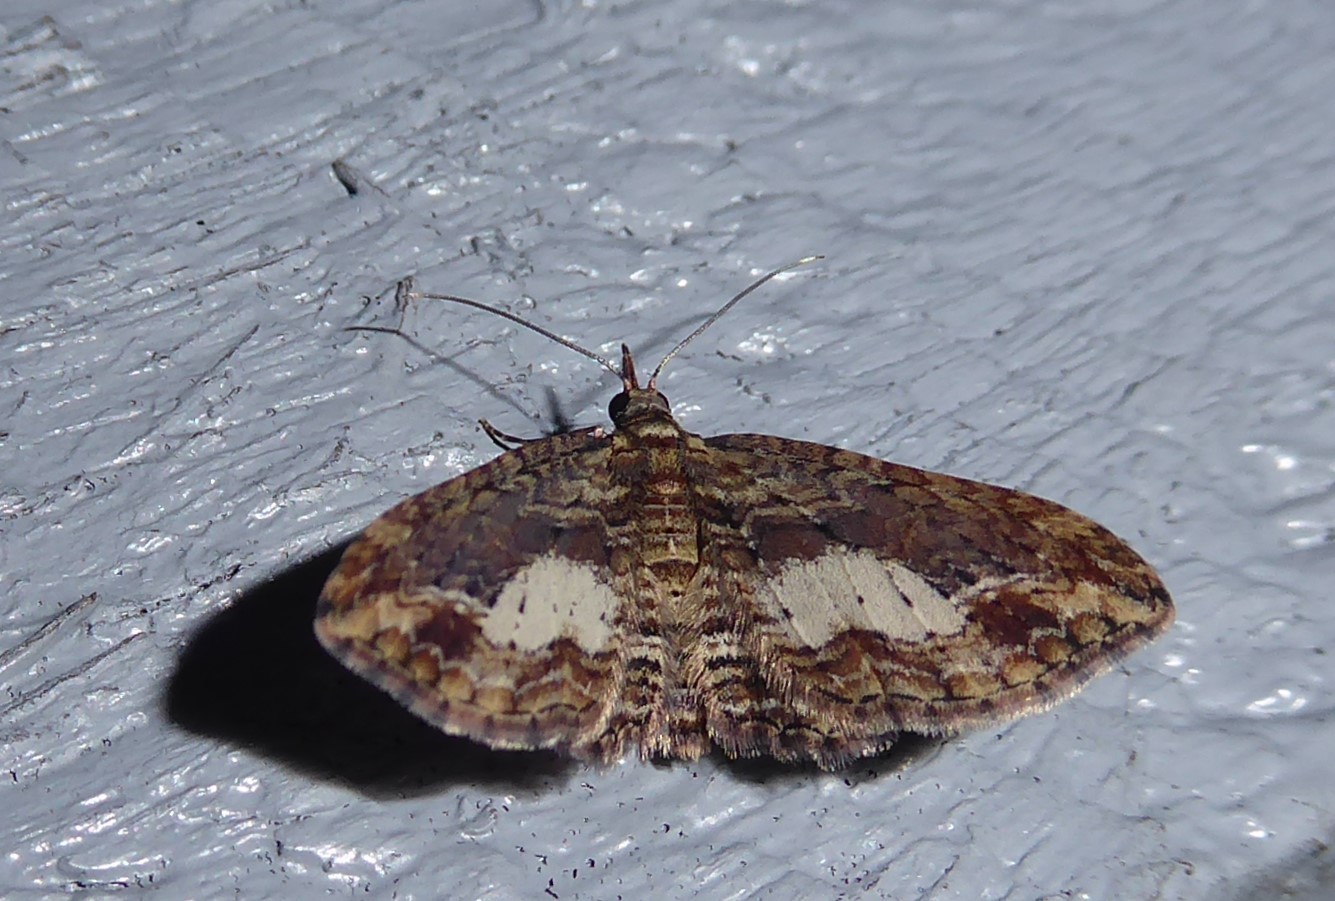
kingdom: Animalia
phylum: Arthropoda
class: Insecta
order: Lepidoptera
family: Geometridae
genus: Chloroclystis
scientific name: Chloroclystis filata
